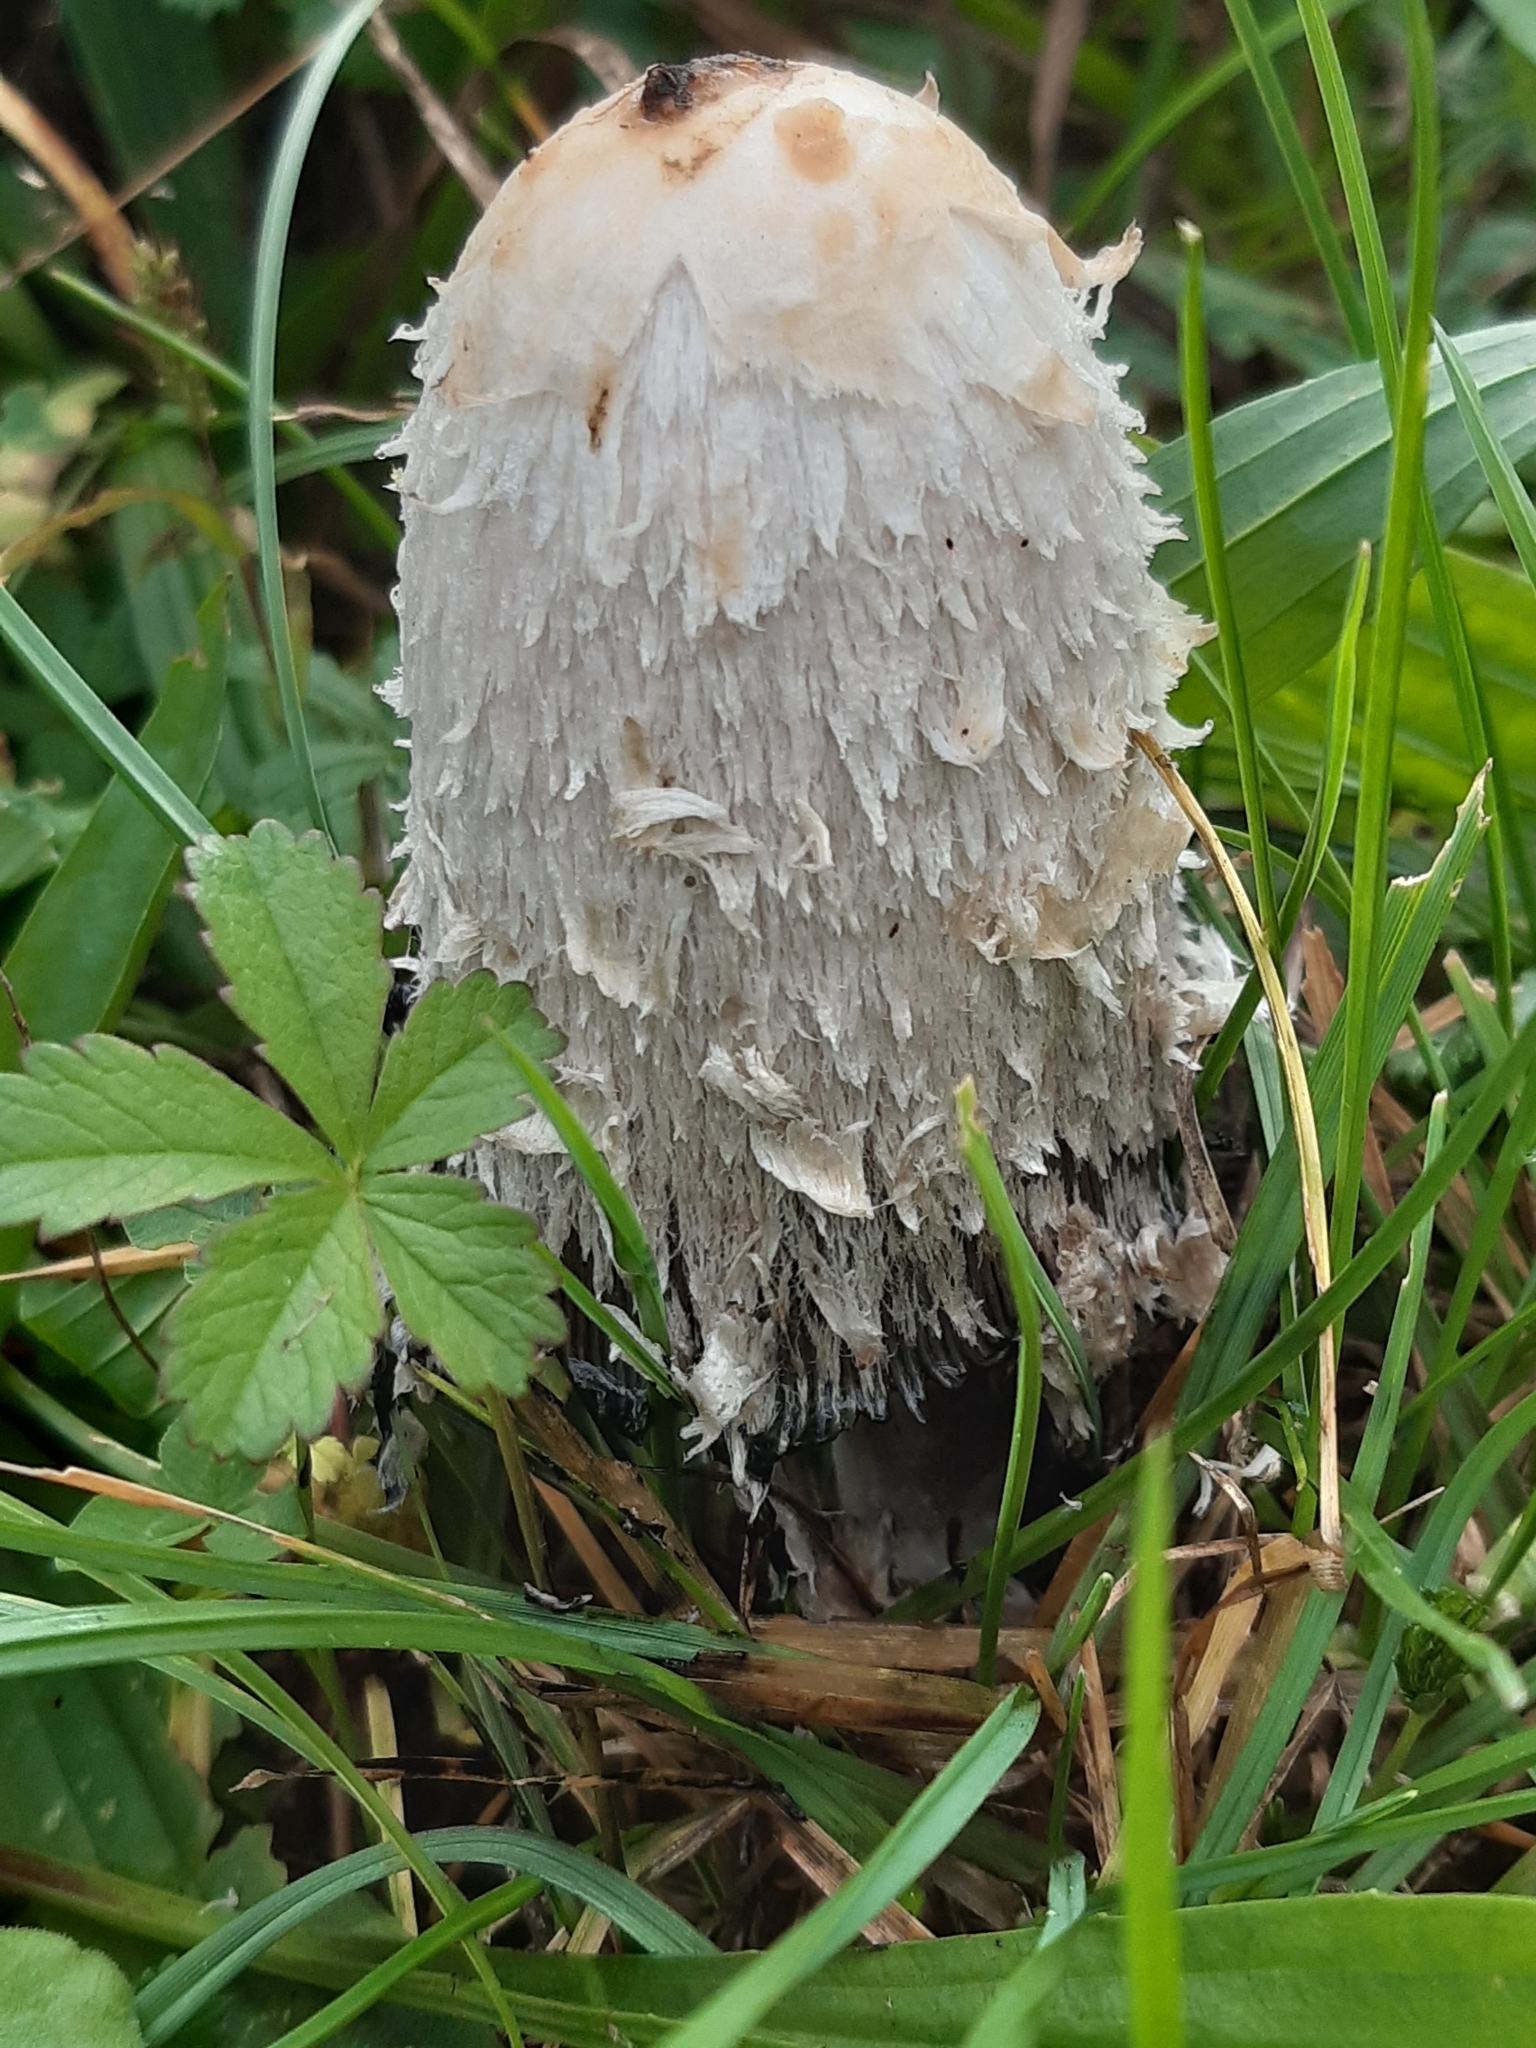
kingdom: Fungi
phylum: Basidiomycota
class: Agaricomycetes
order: Agaricales
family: Agaricaceae
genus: Coprinus
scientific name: Coprinus comatus
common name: Lawyer's wig
